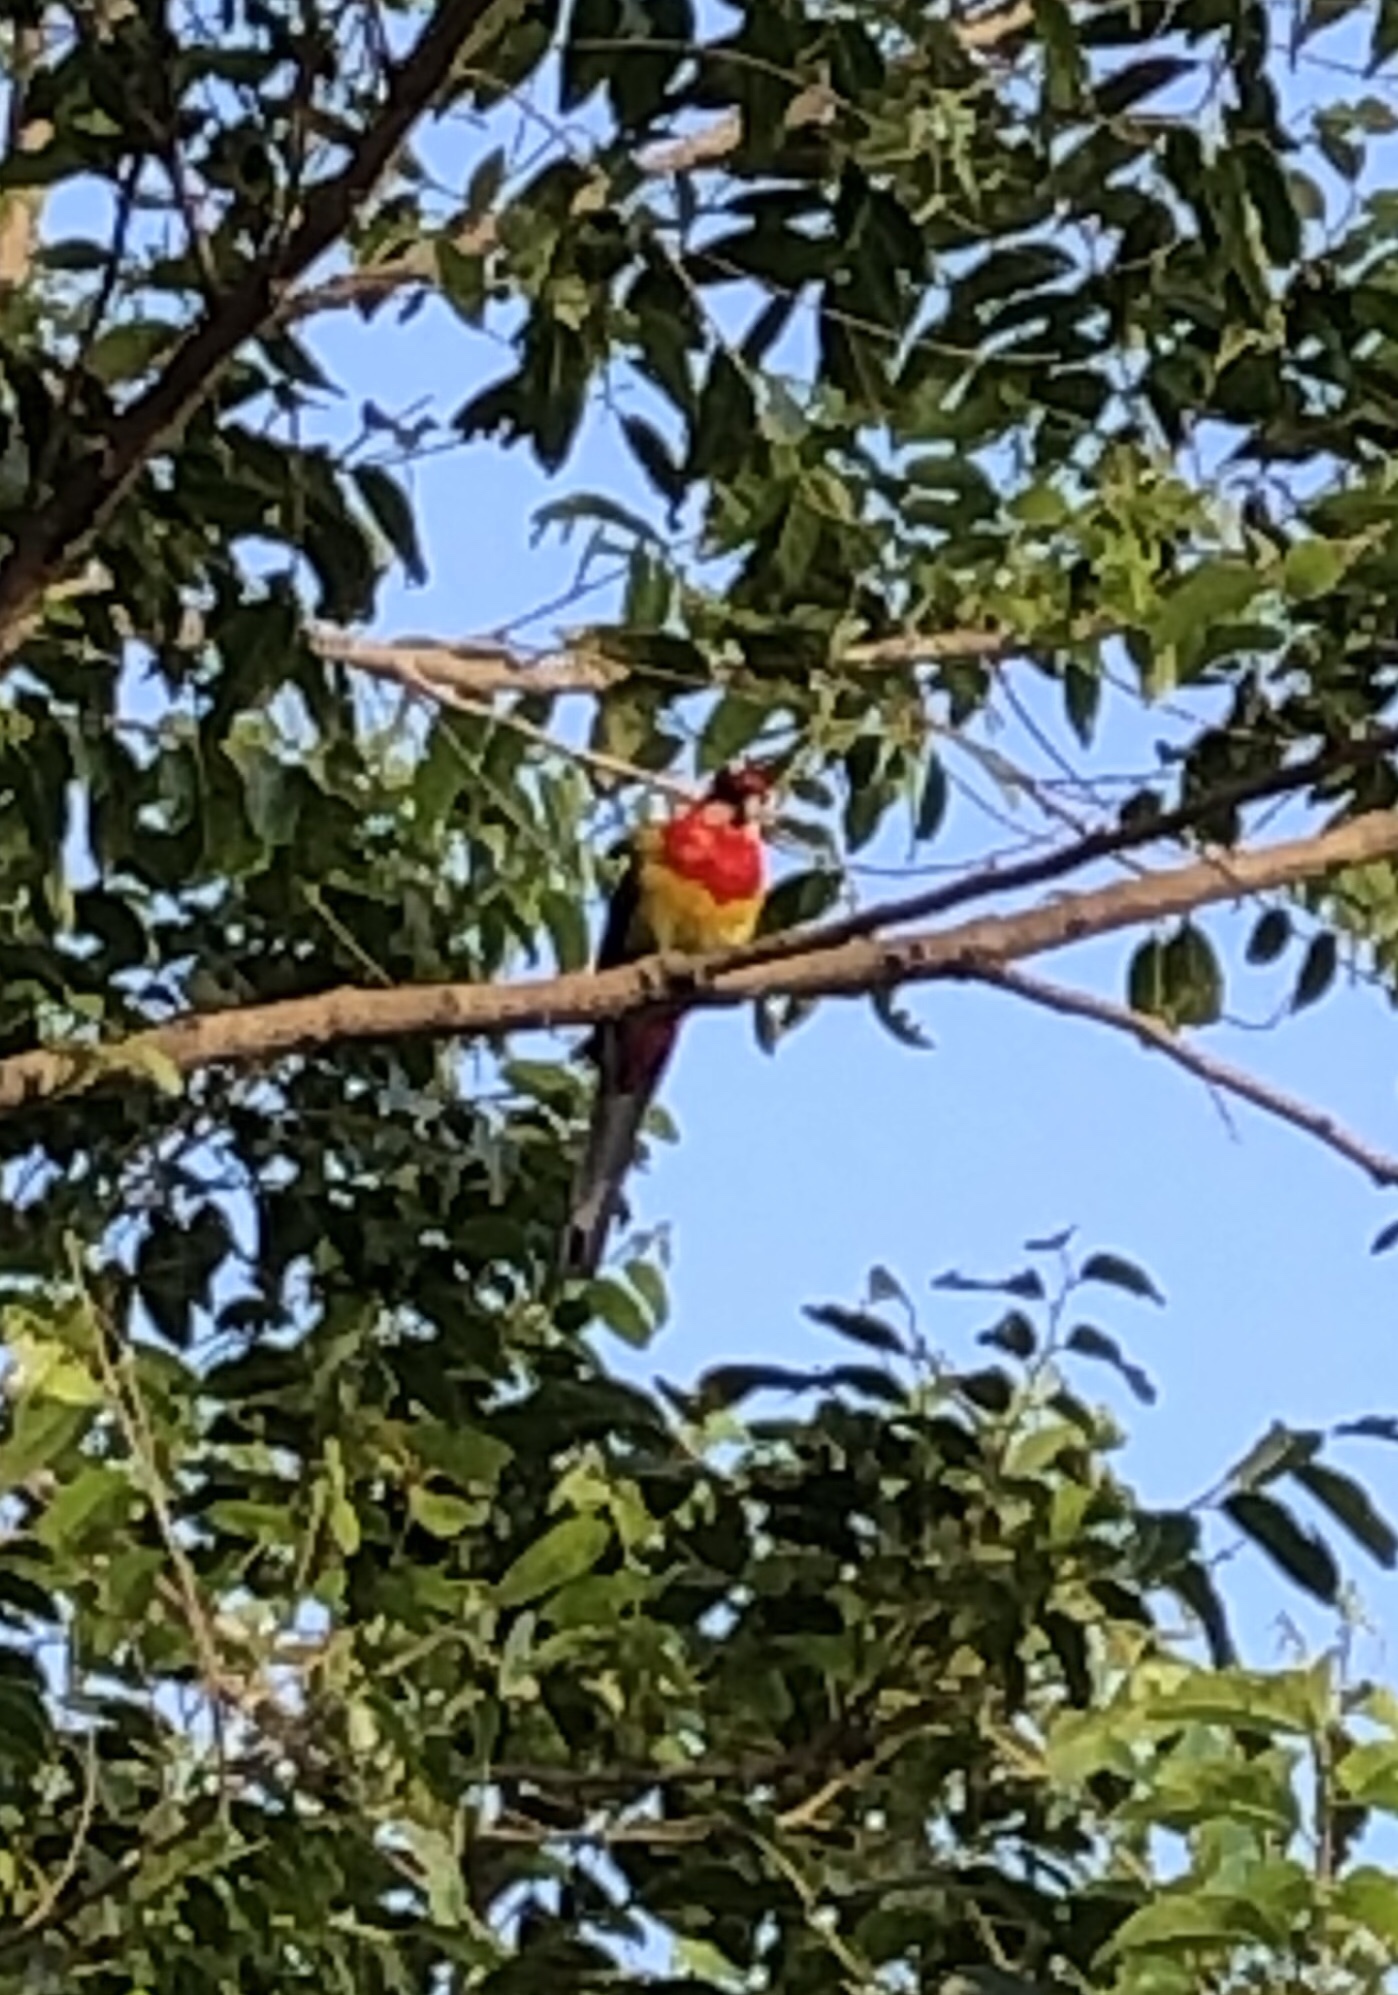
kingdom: Animalia
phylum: Chordata
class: Aves
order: Psittaciformes
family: Psittacidae
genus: Platycercus
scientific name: Platycercus eximius
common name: Eastern rosella
